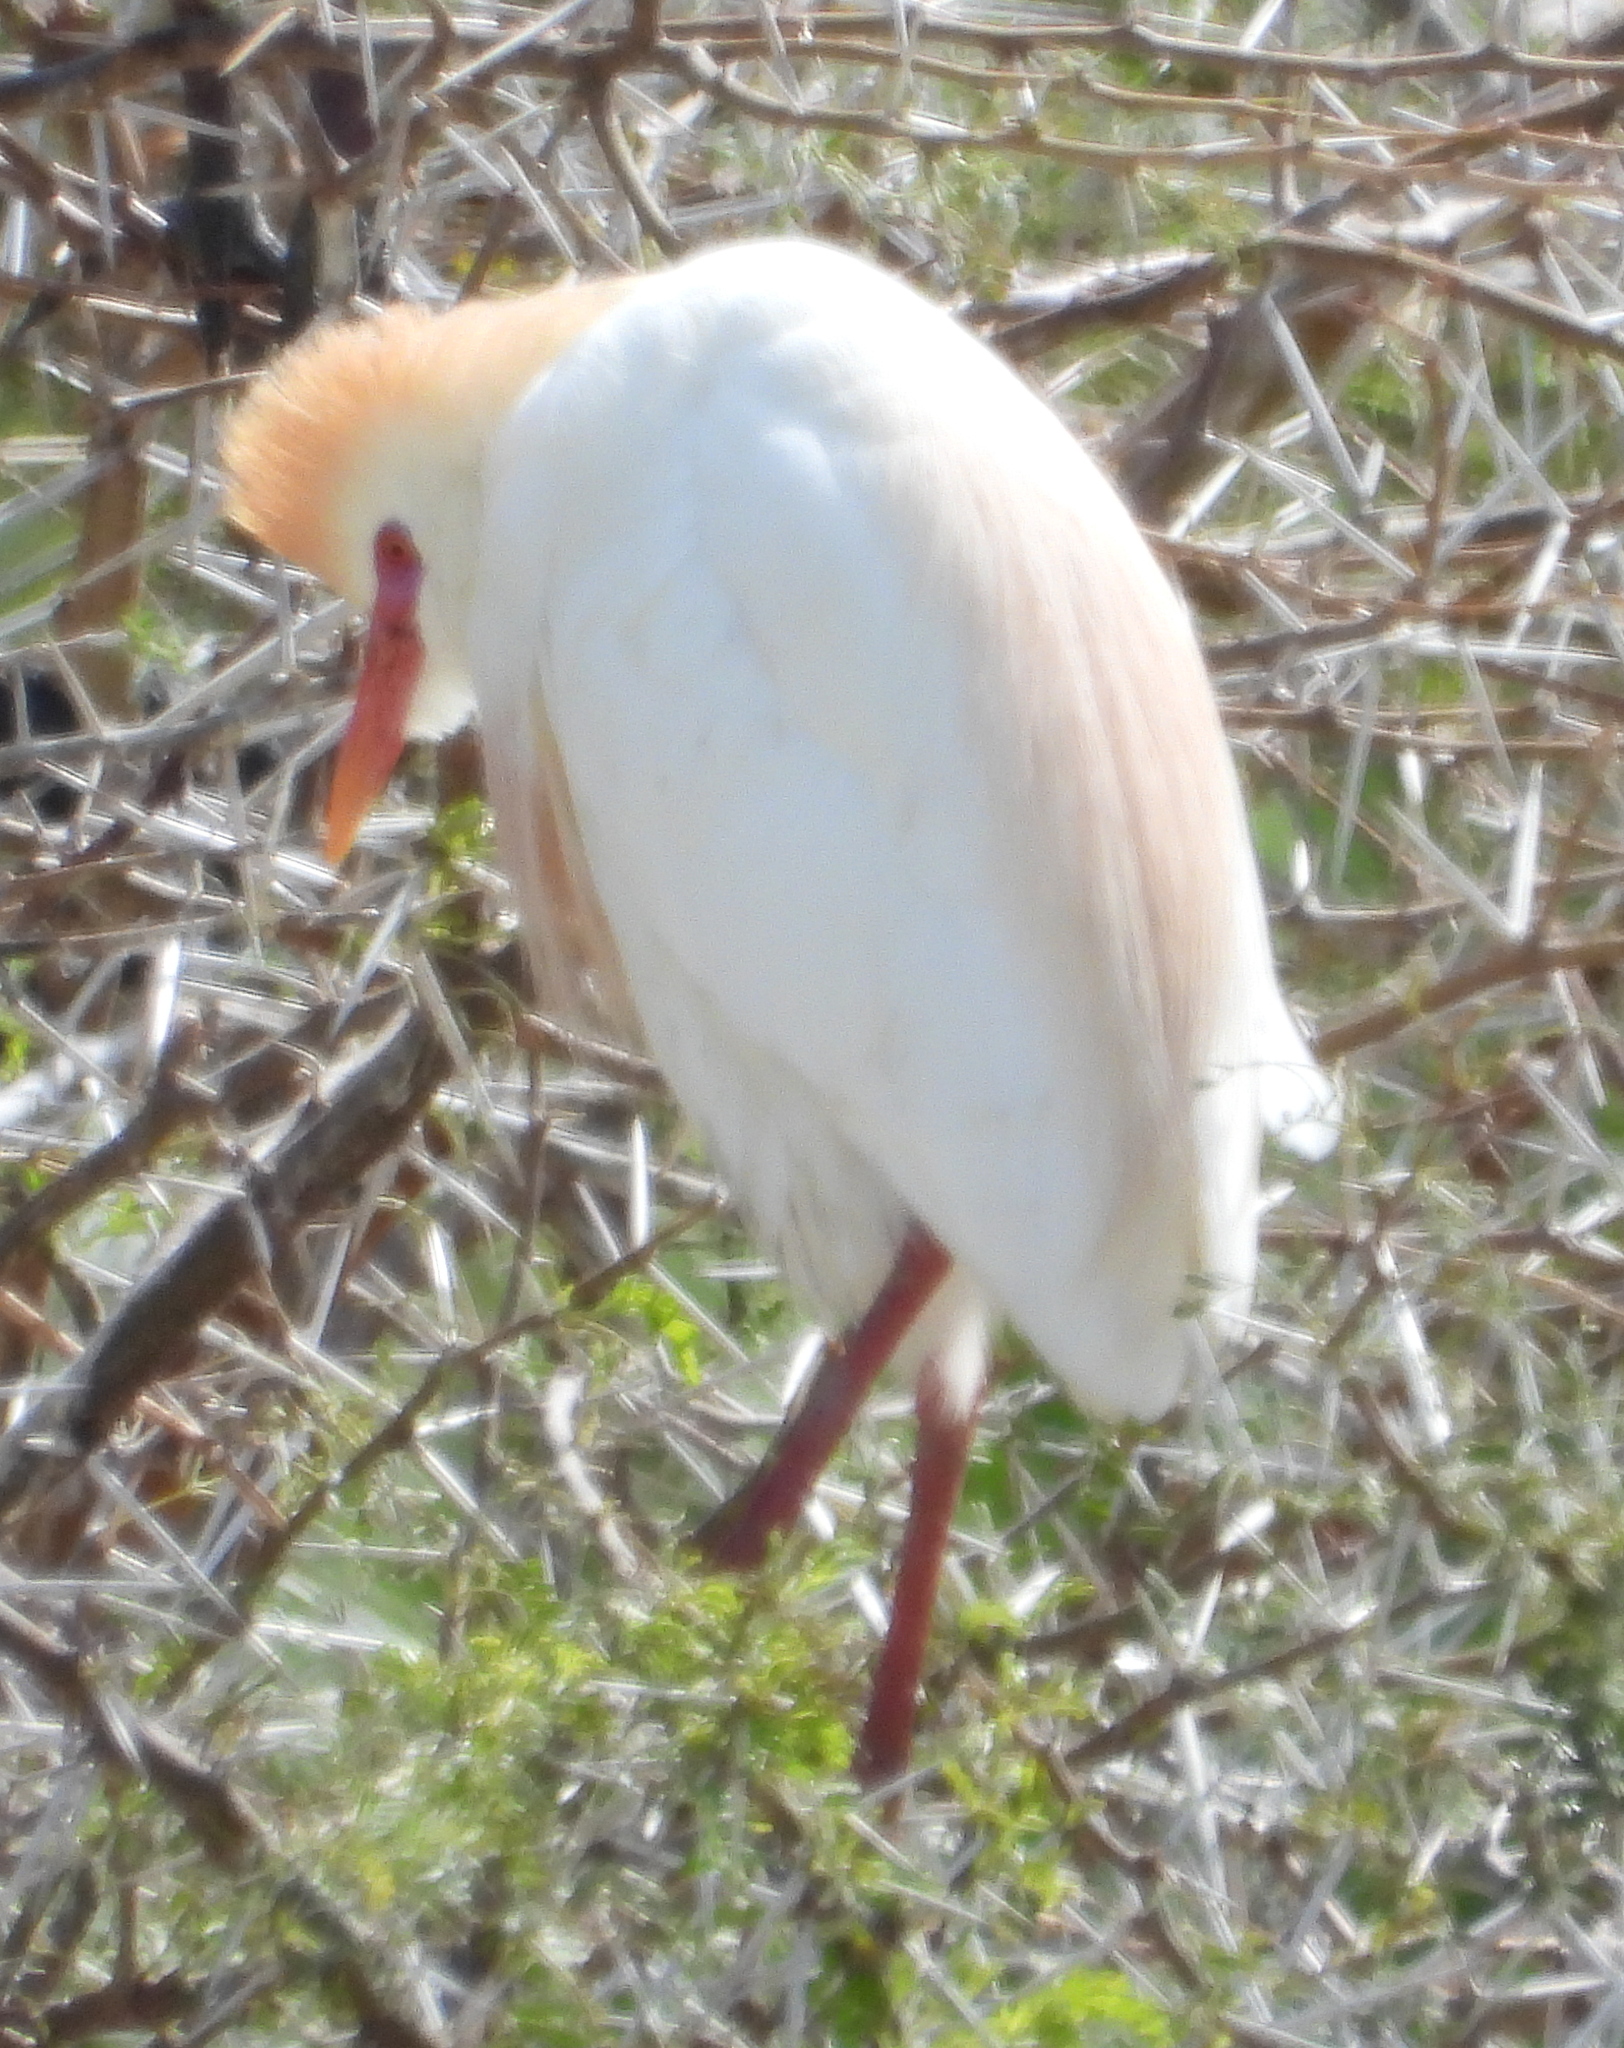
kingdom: Animalia
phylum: Chordata
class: Aves
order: Pelecaniformes
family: Ardeidae
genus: Bubulcus
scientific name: Bubulcus ibis
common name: Cattle egret
